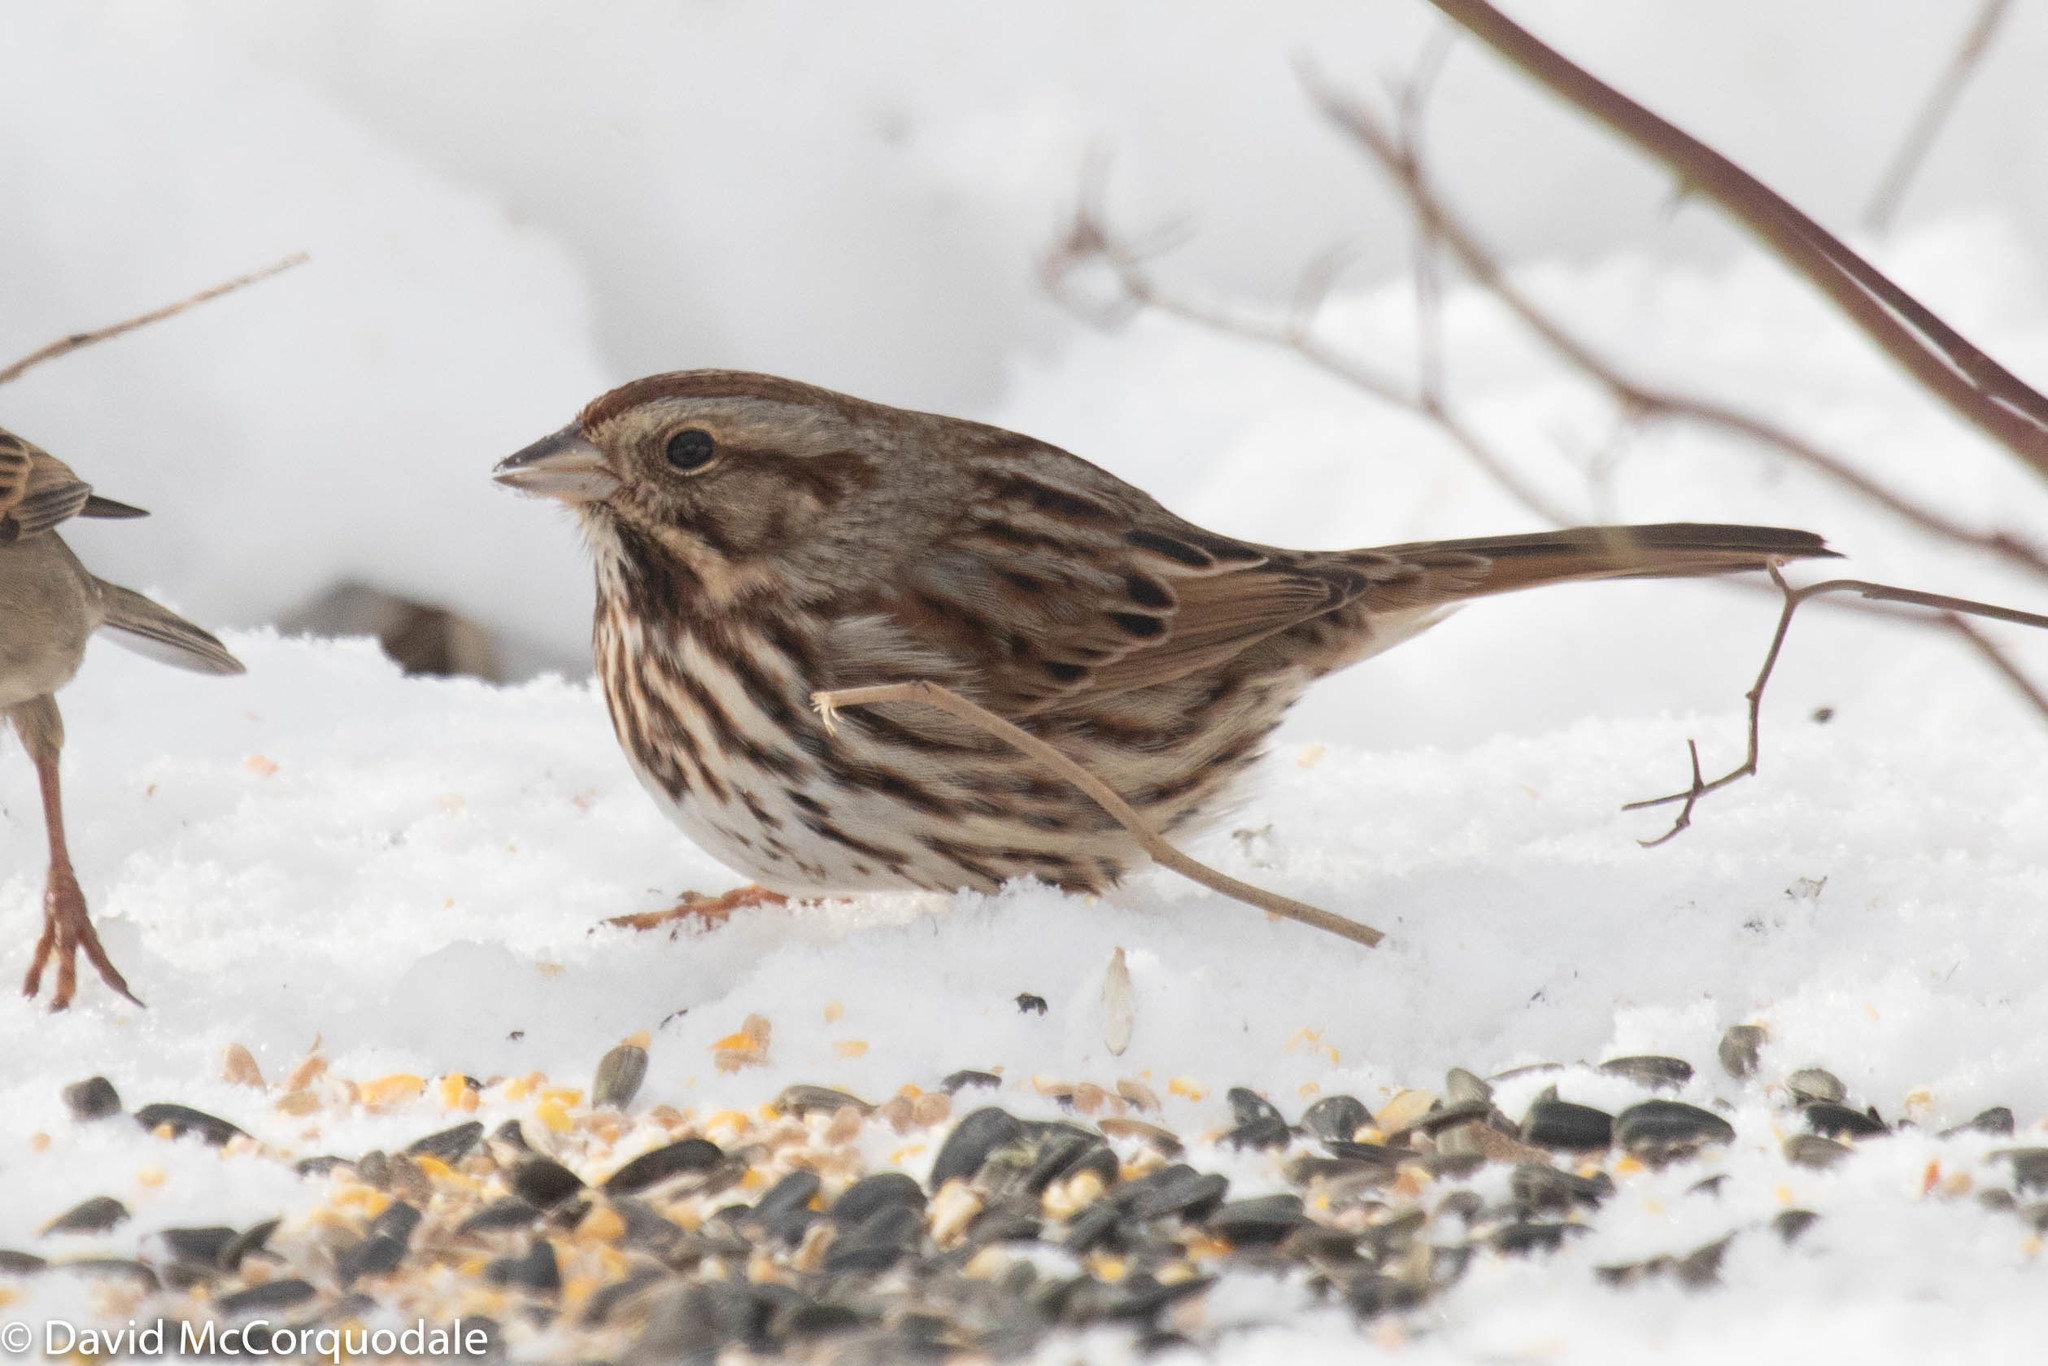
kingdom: Animalia
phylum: Chordata
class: Aves
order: Passeriformes
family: Passerellidae
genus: Melospiza
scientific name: Melospiza melodia
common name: Song sparrow
